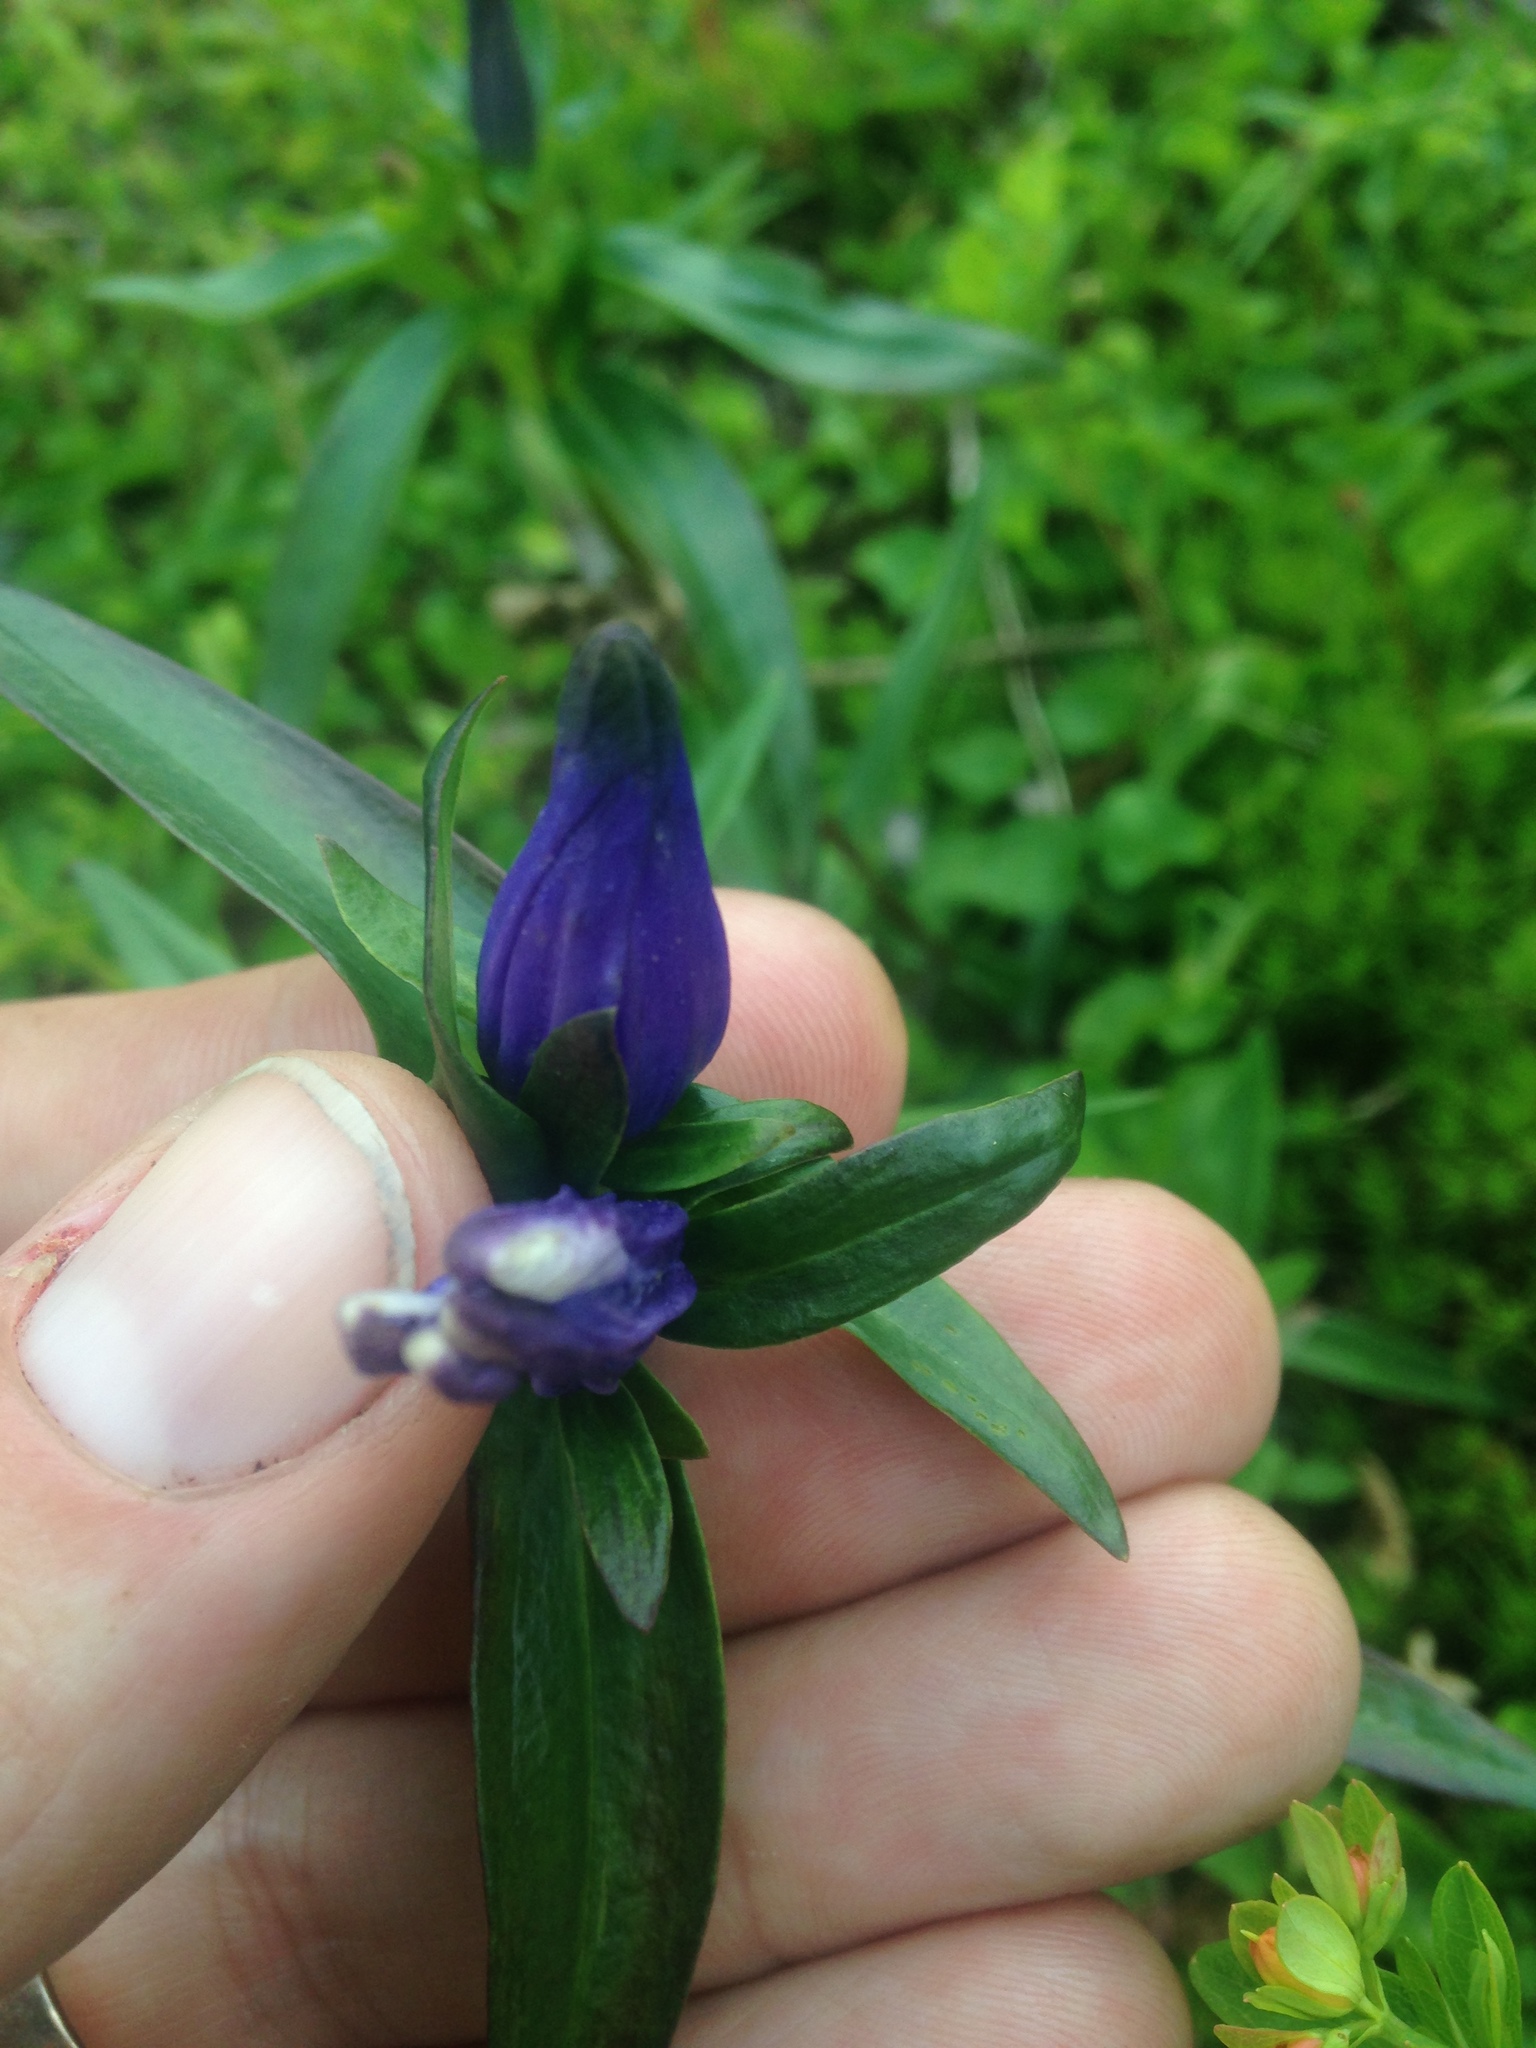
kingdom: Plantae
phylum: Tracheophyta
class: Magnoliopsida
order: Gentianales
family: Gentianaceae
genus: Gentiana
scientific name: Gentiana linearis
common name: Bastard gentian
